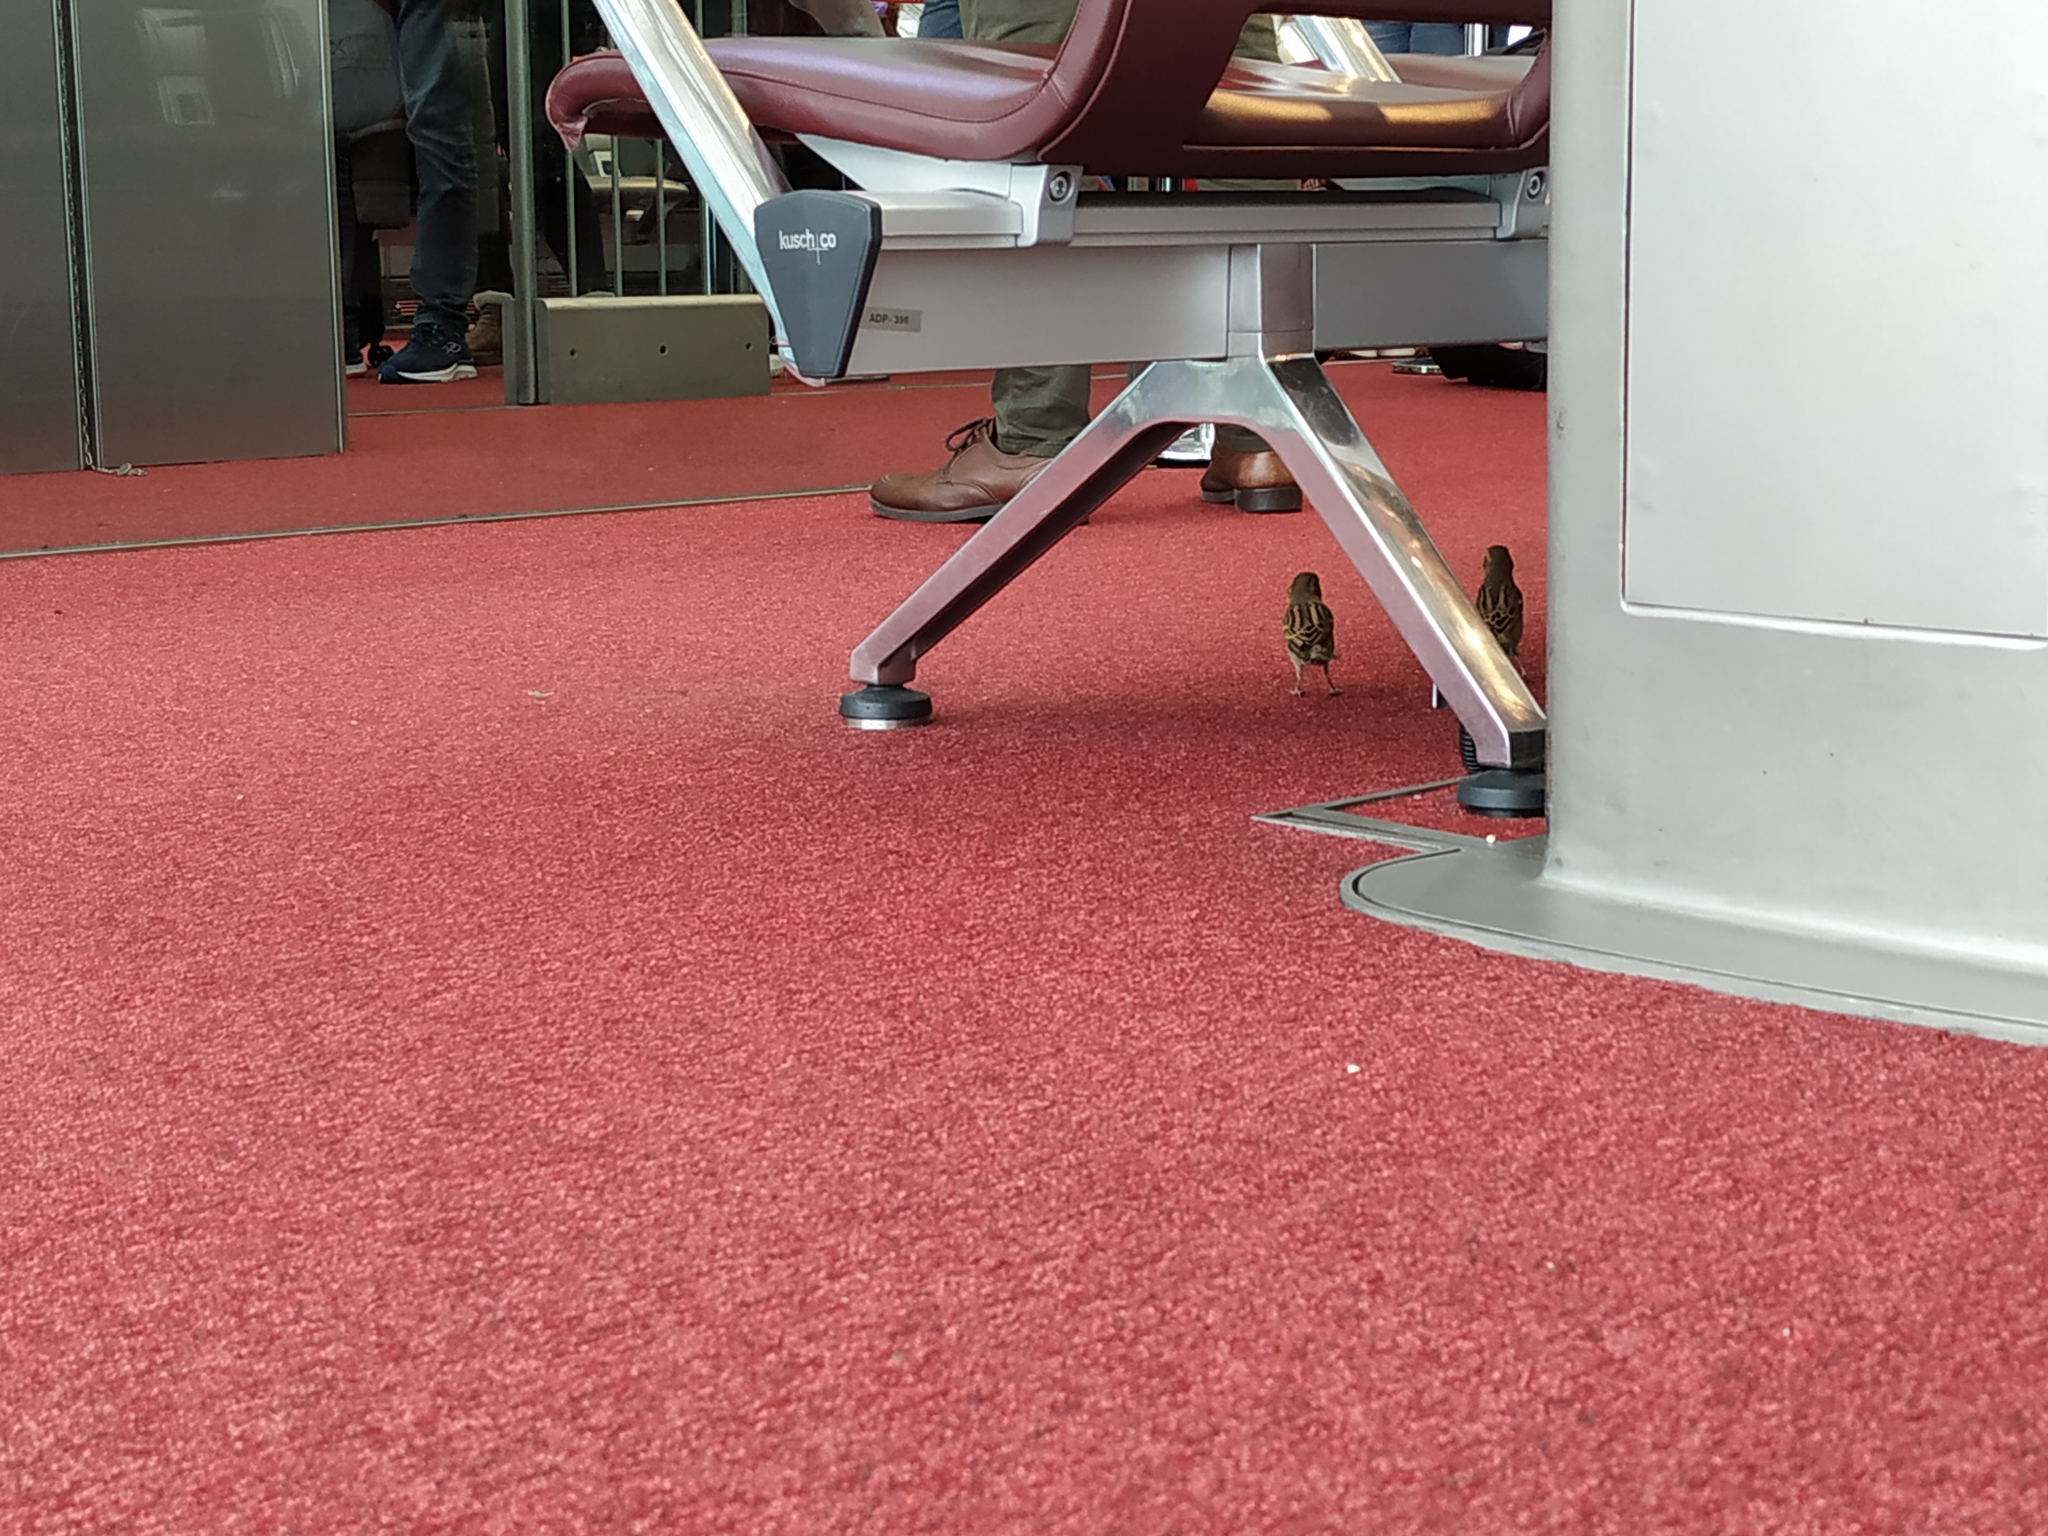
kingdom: Animalia
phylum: Chordata
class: Aves
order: Passeriformes
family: Passeridae
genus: Passer
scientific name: Passer domesticus
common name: House sparrow
